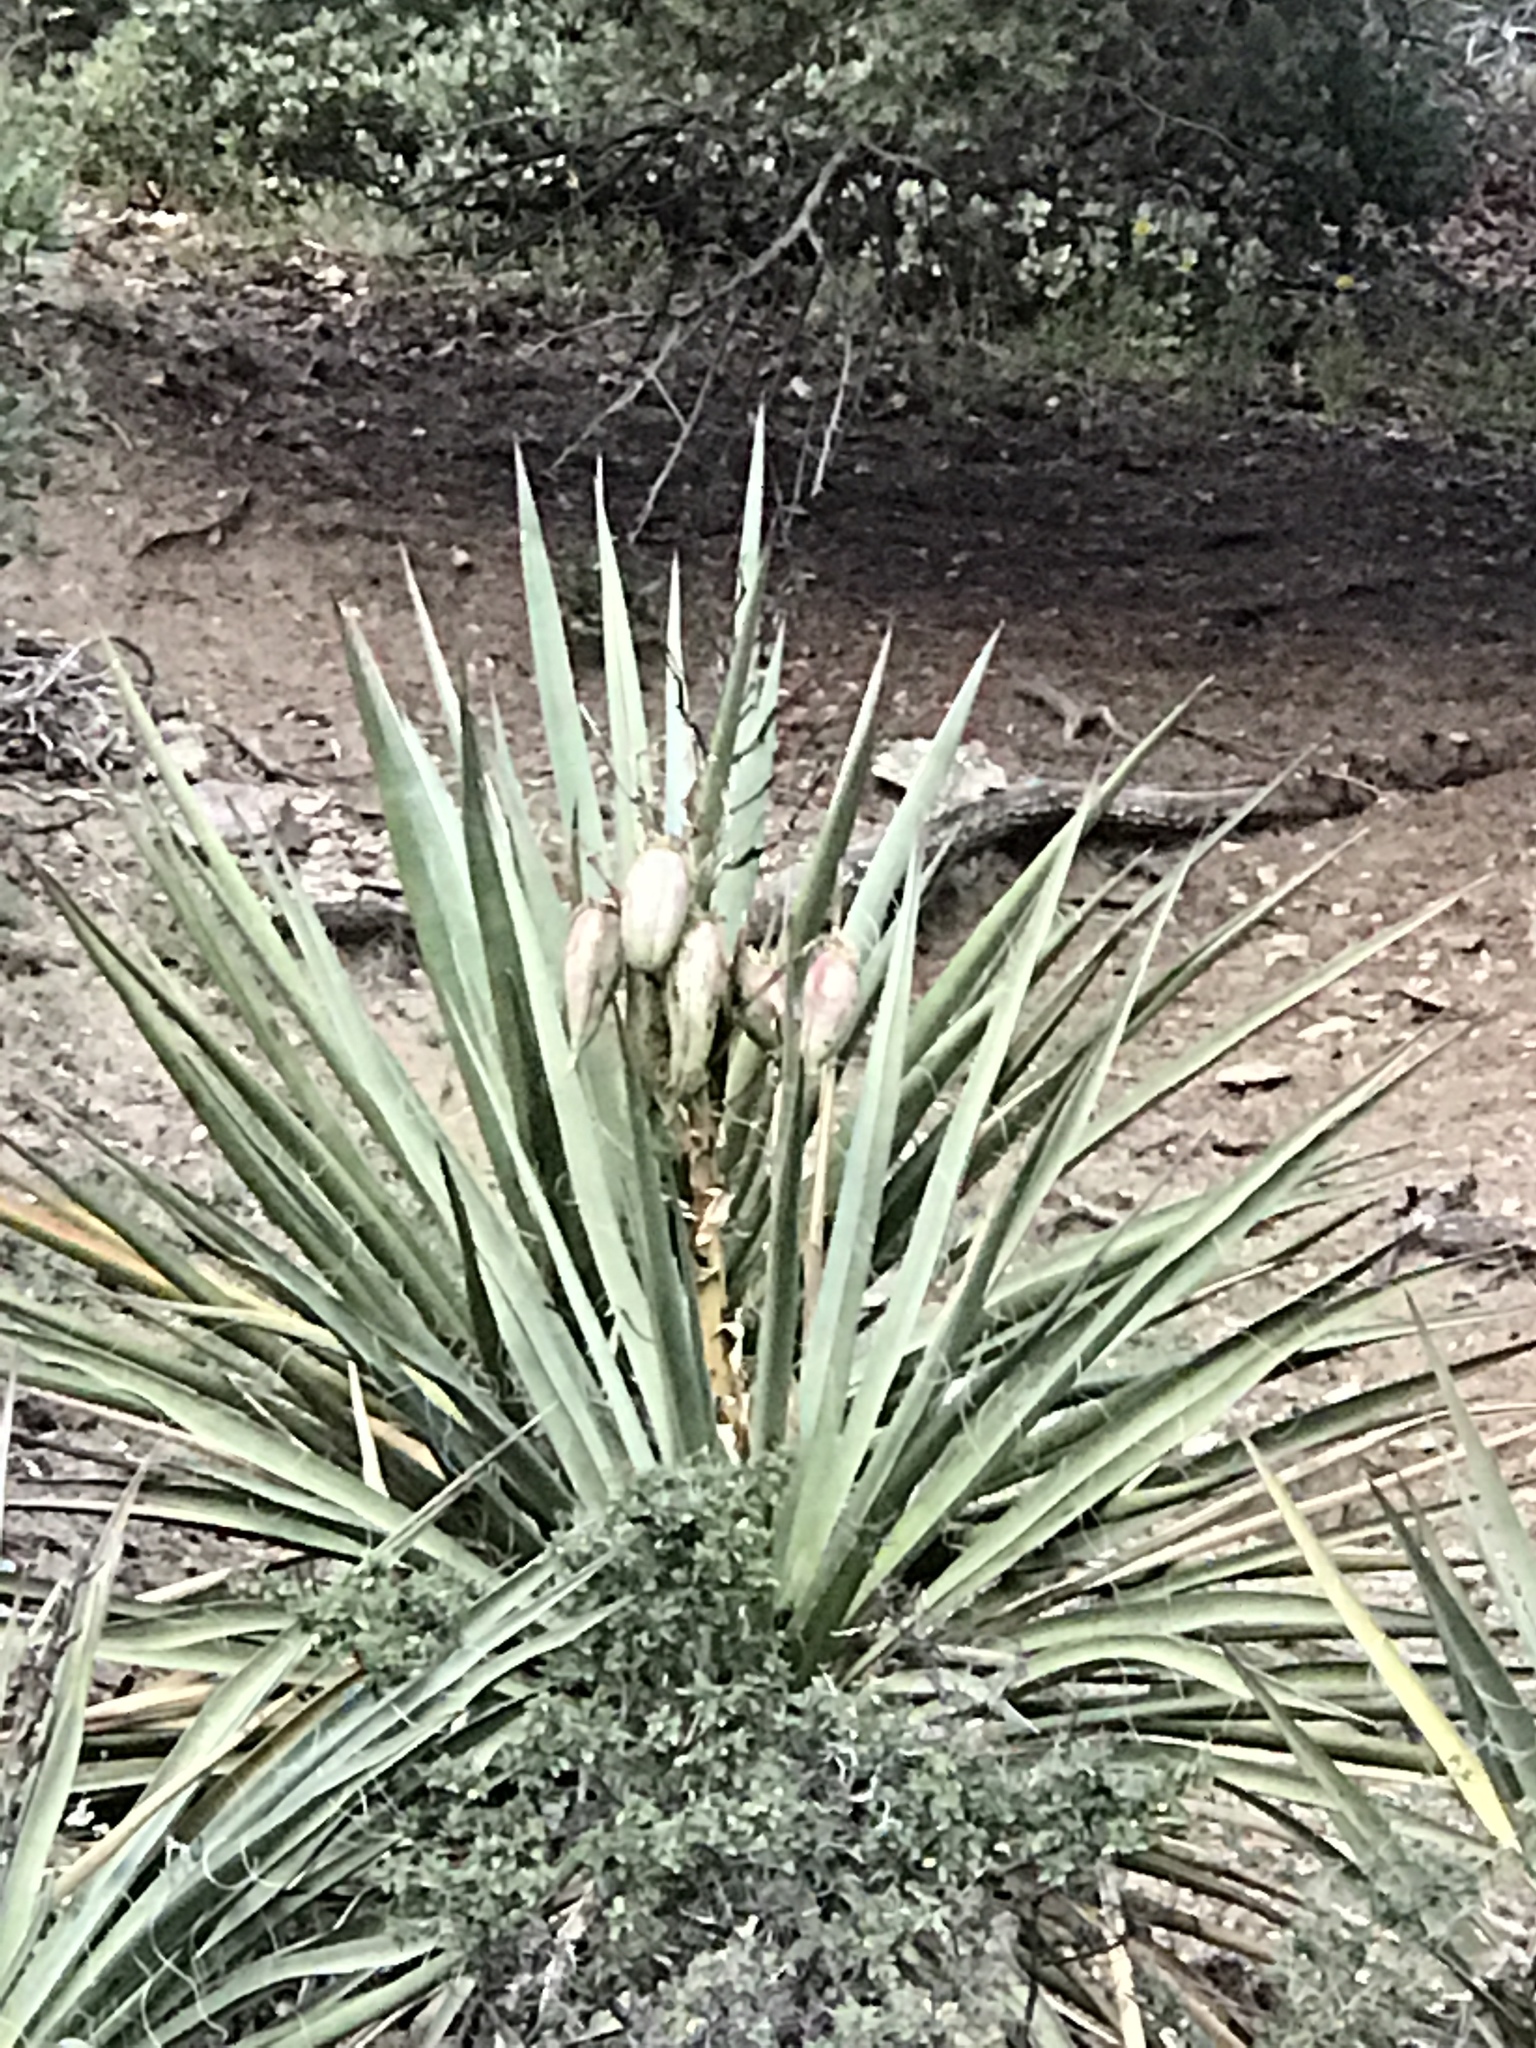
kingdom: Plantae
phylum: Tracheophyta
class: Liliopsida
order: Asparagales
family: Asparagaceae
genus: Yucca
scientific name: Yucca baccata
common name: Banana yucca
